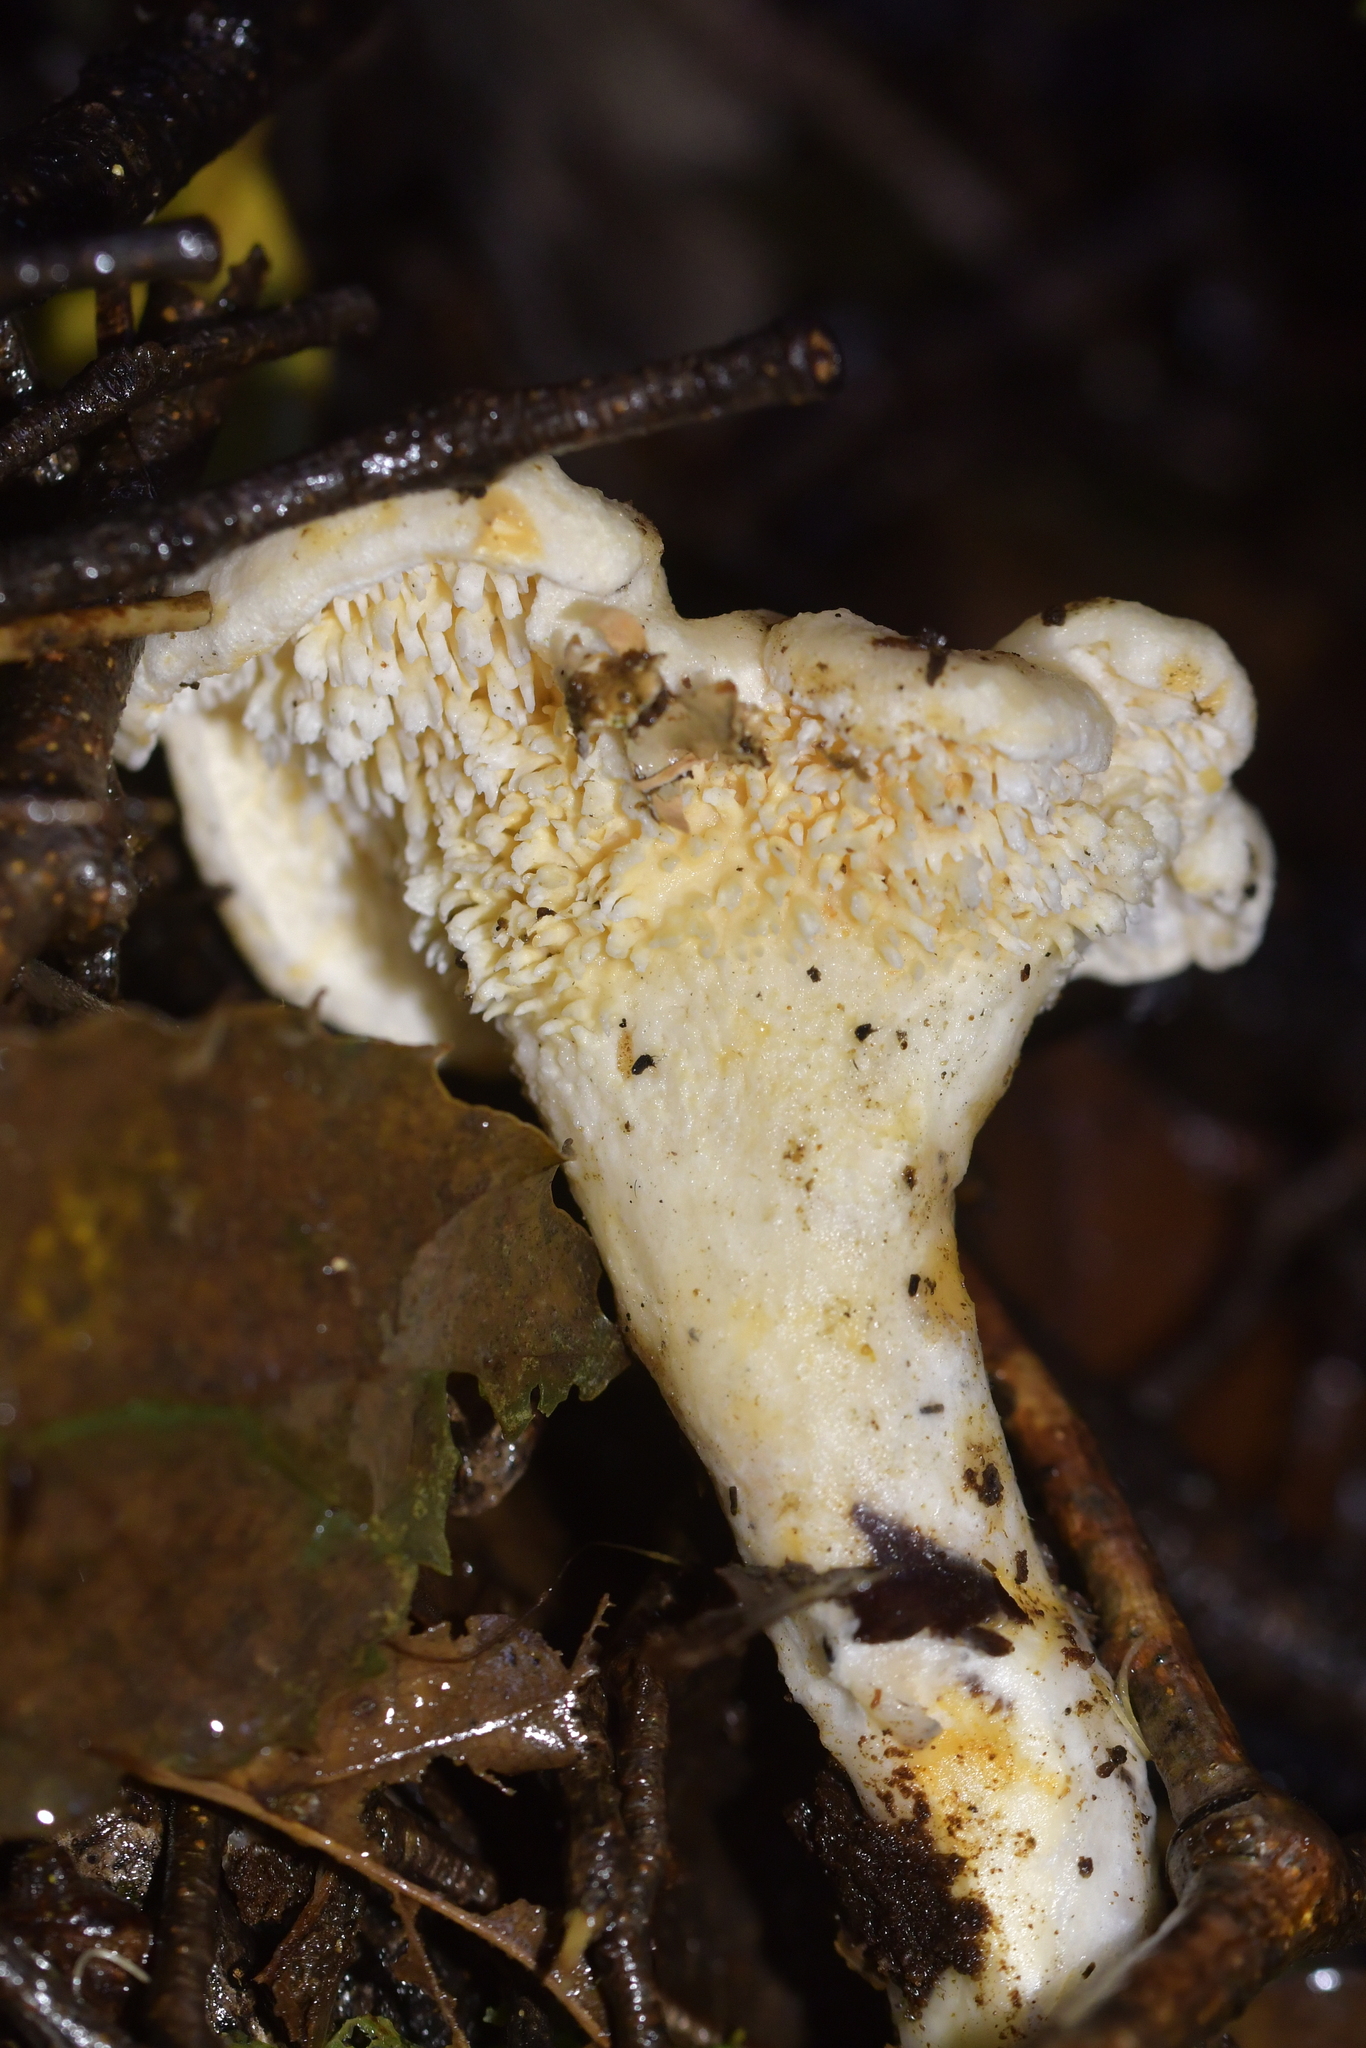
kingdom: Fungi
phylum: Basidiomycota
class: Agaricomycetes
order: Cantharellales
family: Hydnaceae
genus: Hydnum
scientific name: Hydnum ambustum
